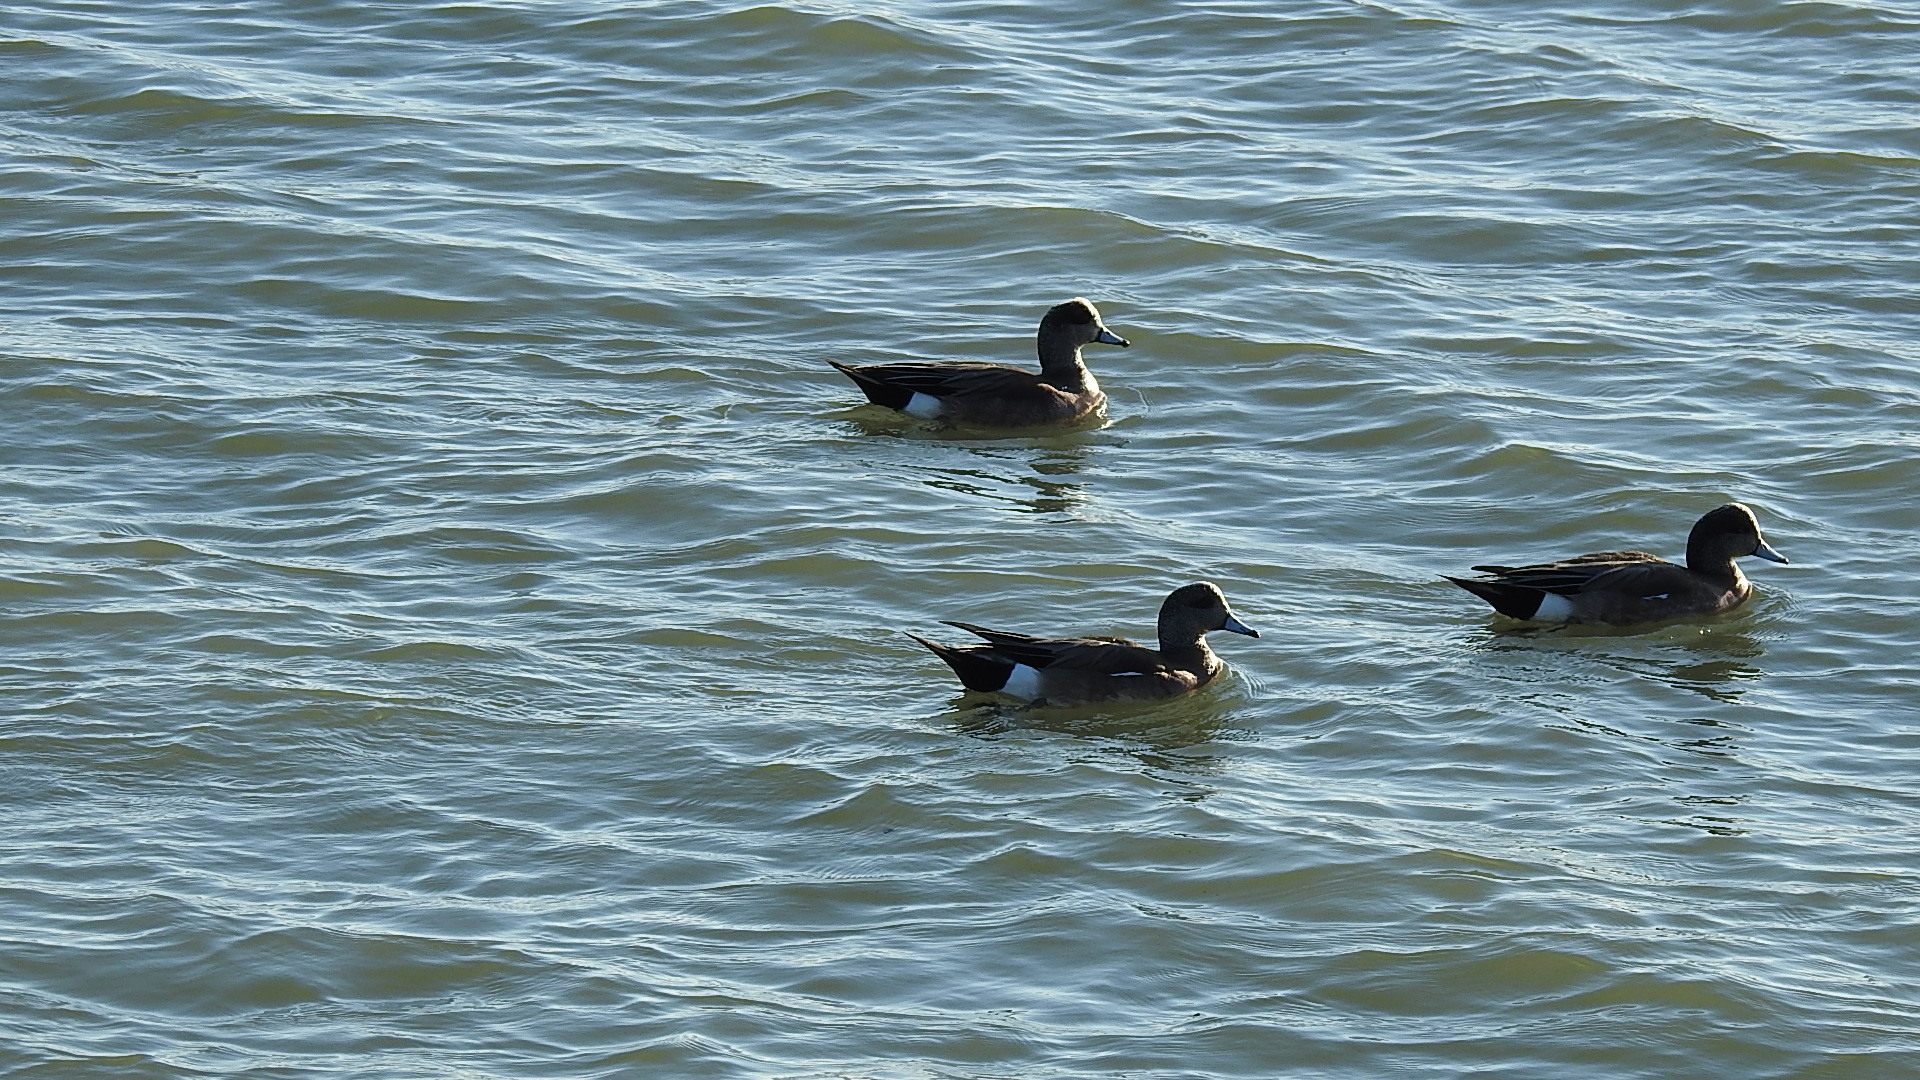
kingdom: Animalia
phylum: Chordata
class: Aves
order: Anseriformes
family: Anatidae
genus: Mareca
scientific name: Mareca americana
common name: American wigeon
